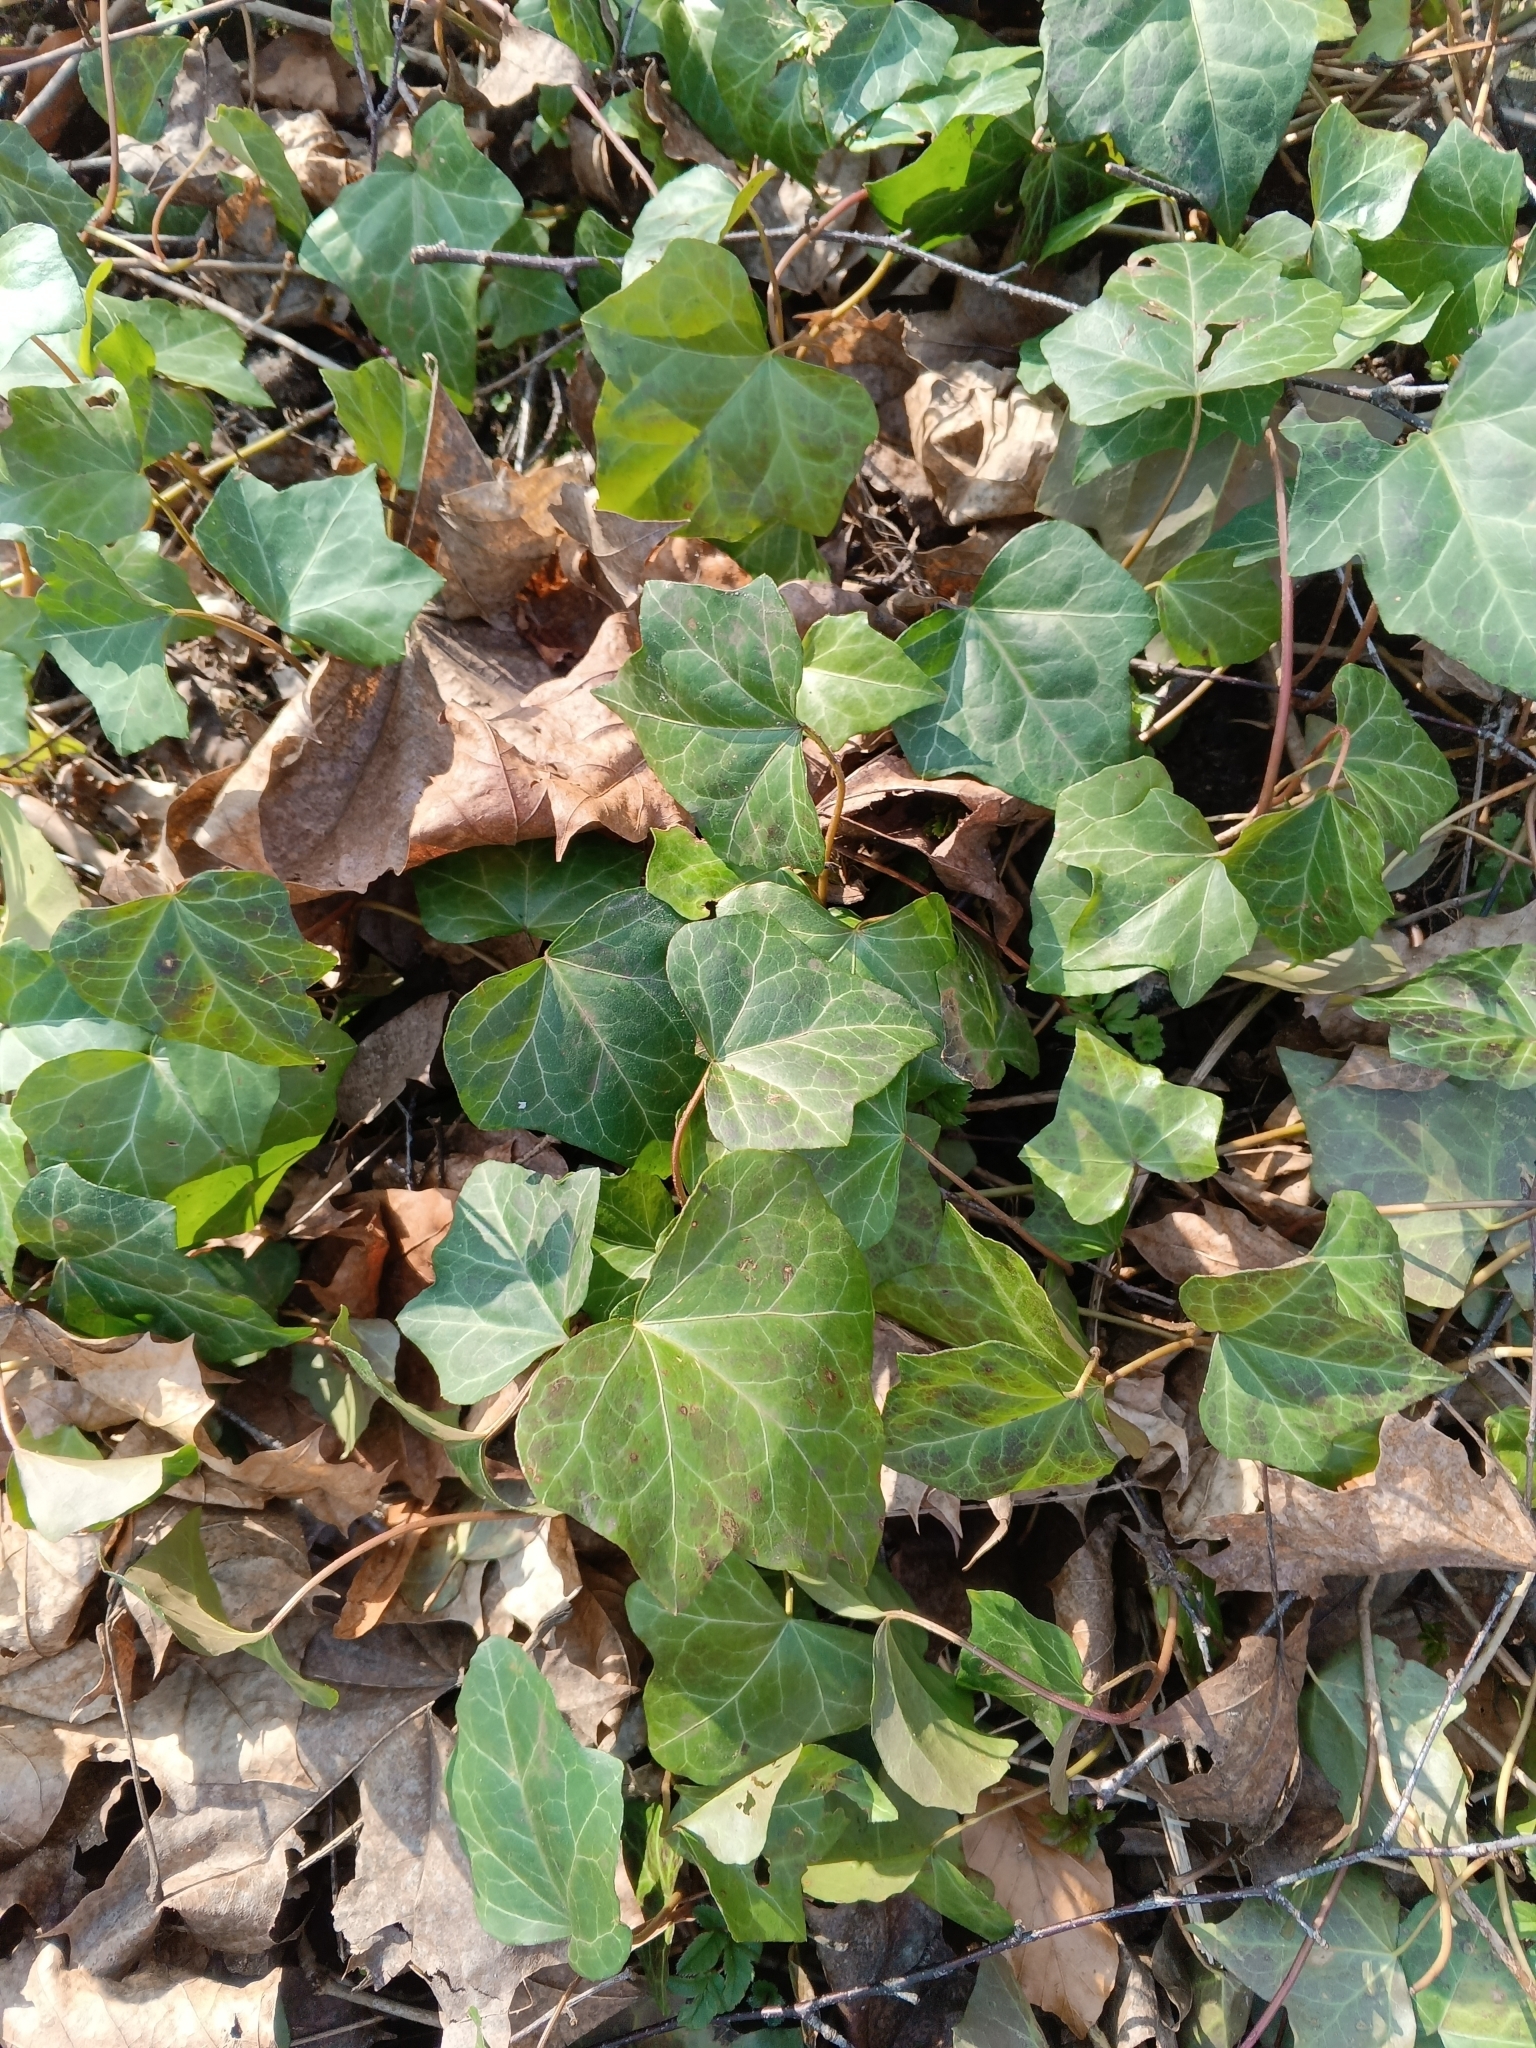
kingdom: Plantae
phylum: Tracheophyta
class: Magnoliopsida
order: Apiales
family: Araliaceae
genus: Hedera
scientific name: Hedera helix
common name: Ivy
